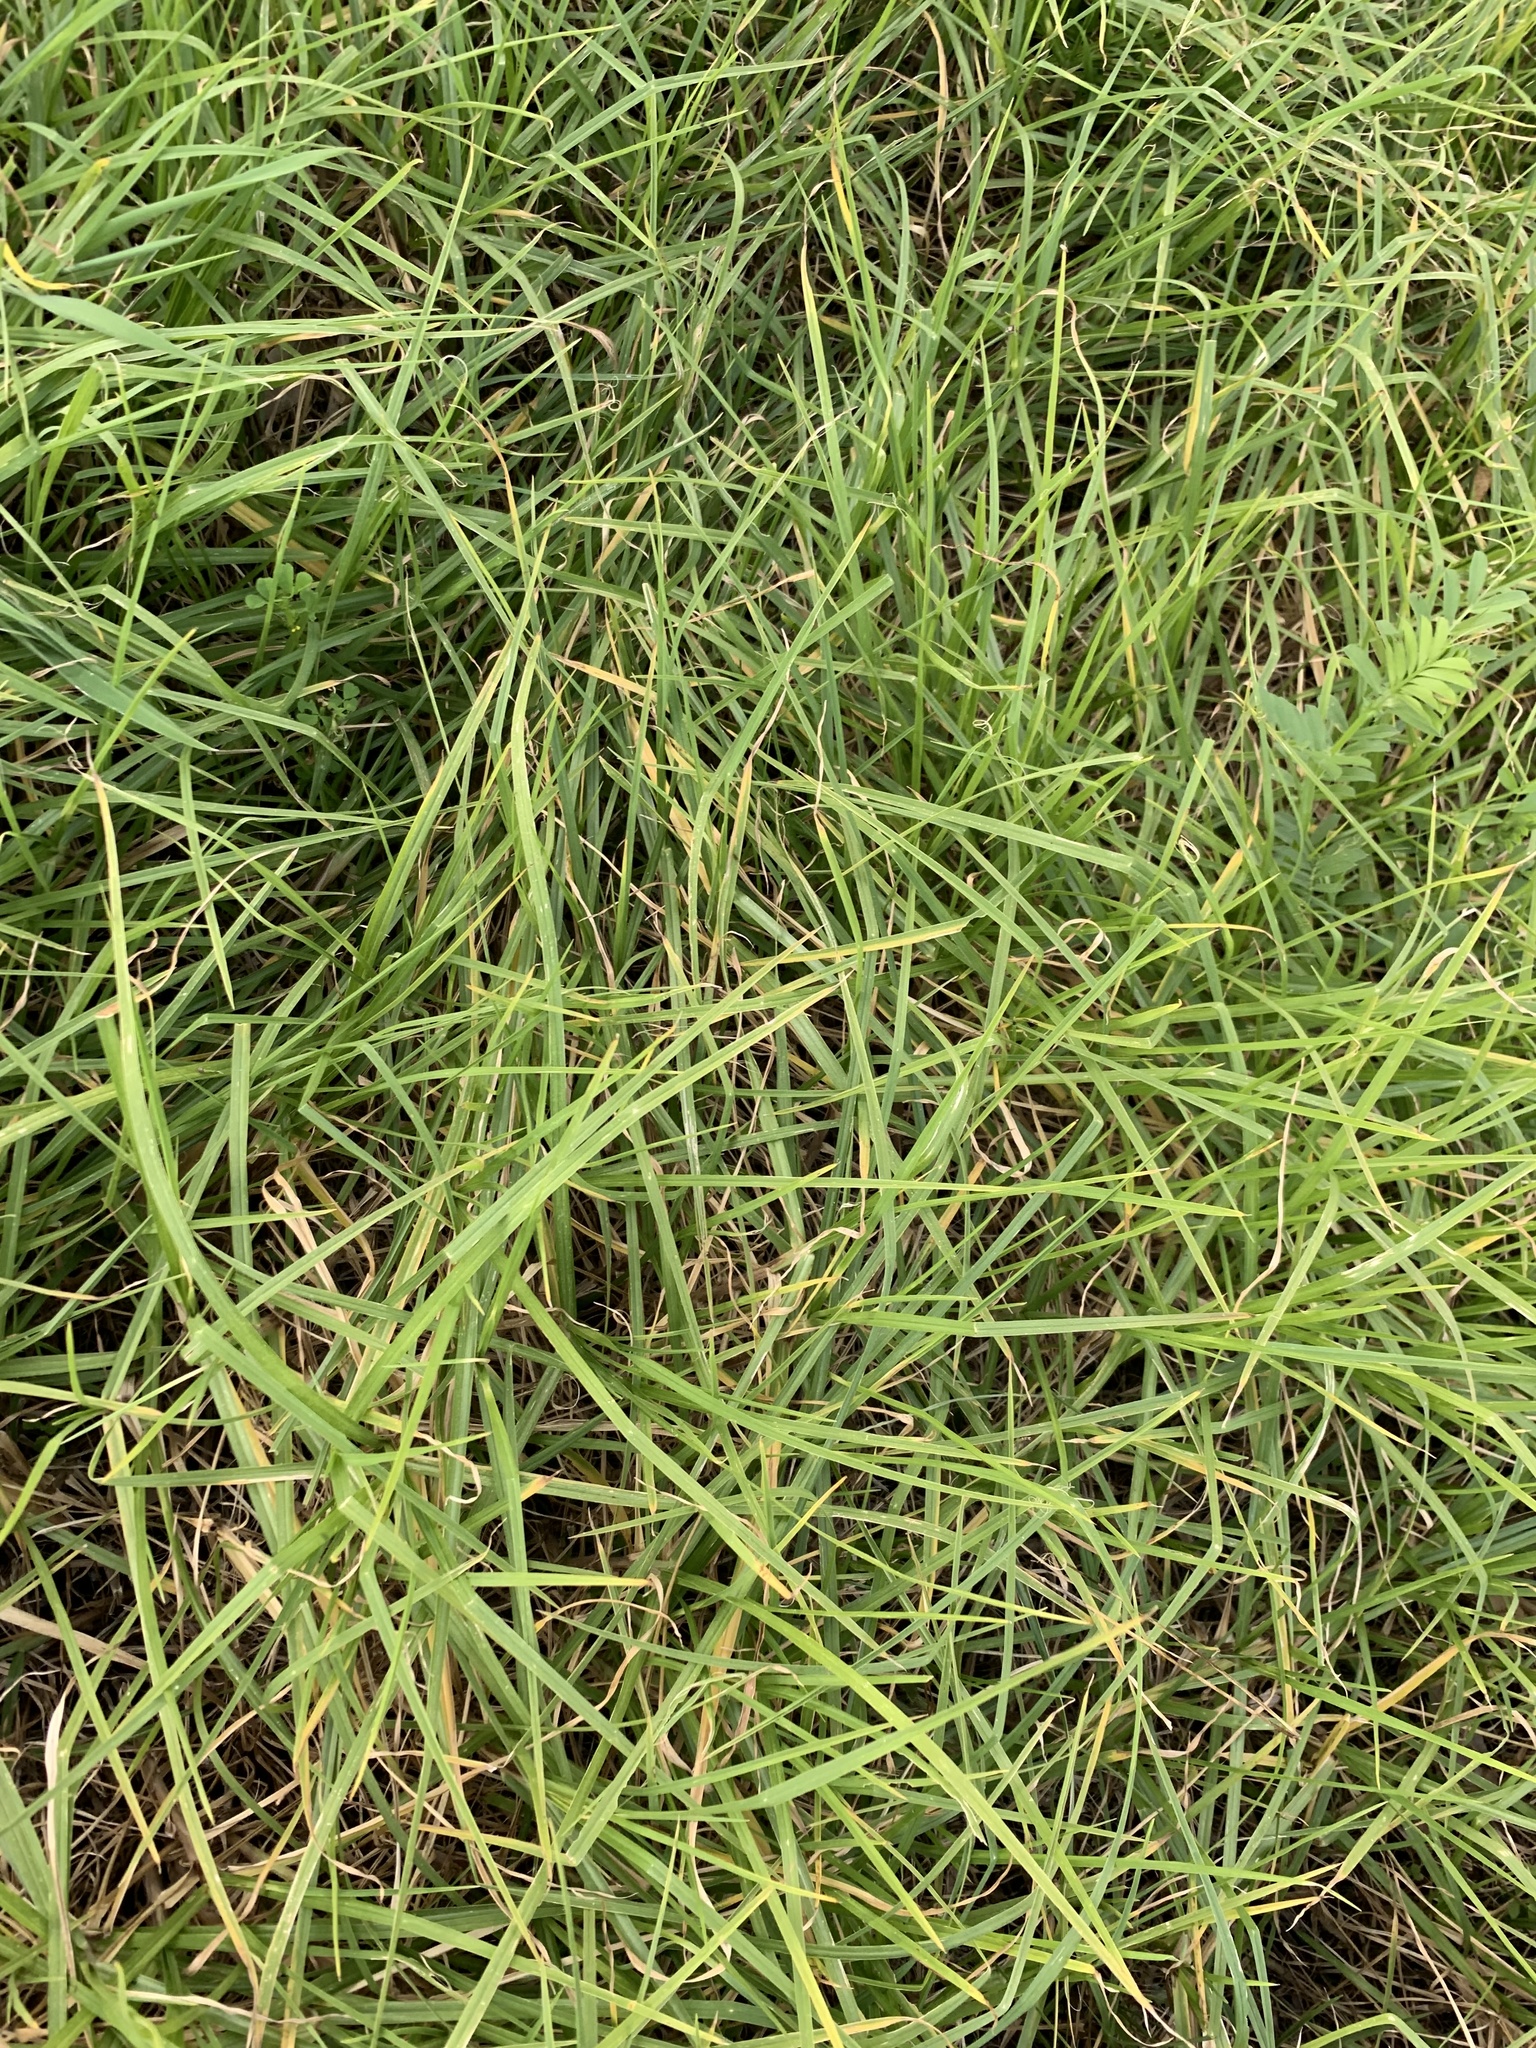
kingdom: Plantae
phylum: Tracheophyta
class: Liliopsida
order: Poales
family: Poaceae
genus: Cenchrus
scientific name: Cenchrus clandestinus
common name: Kikuyugrass
